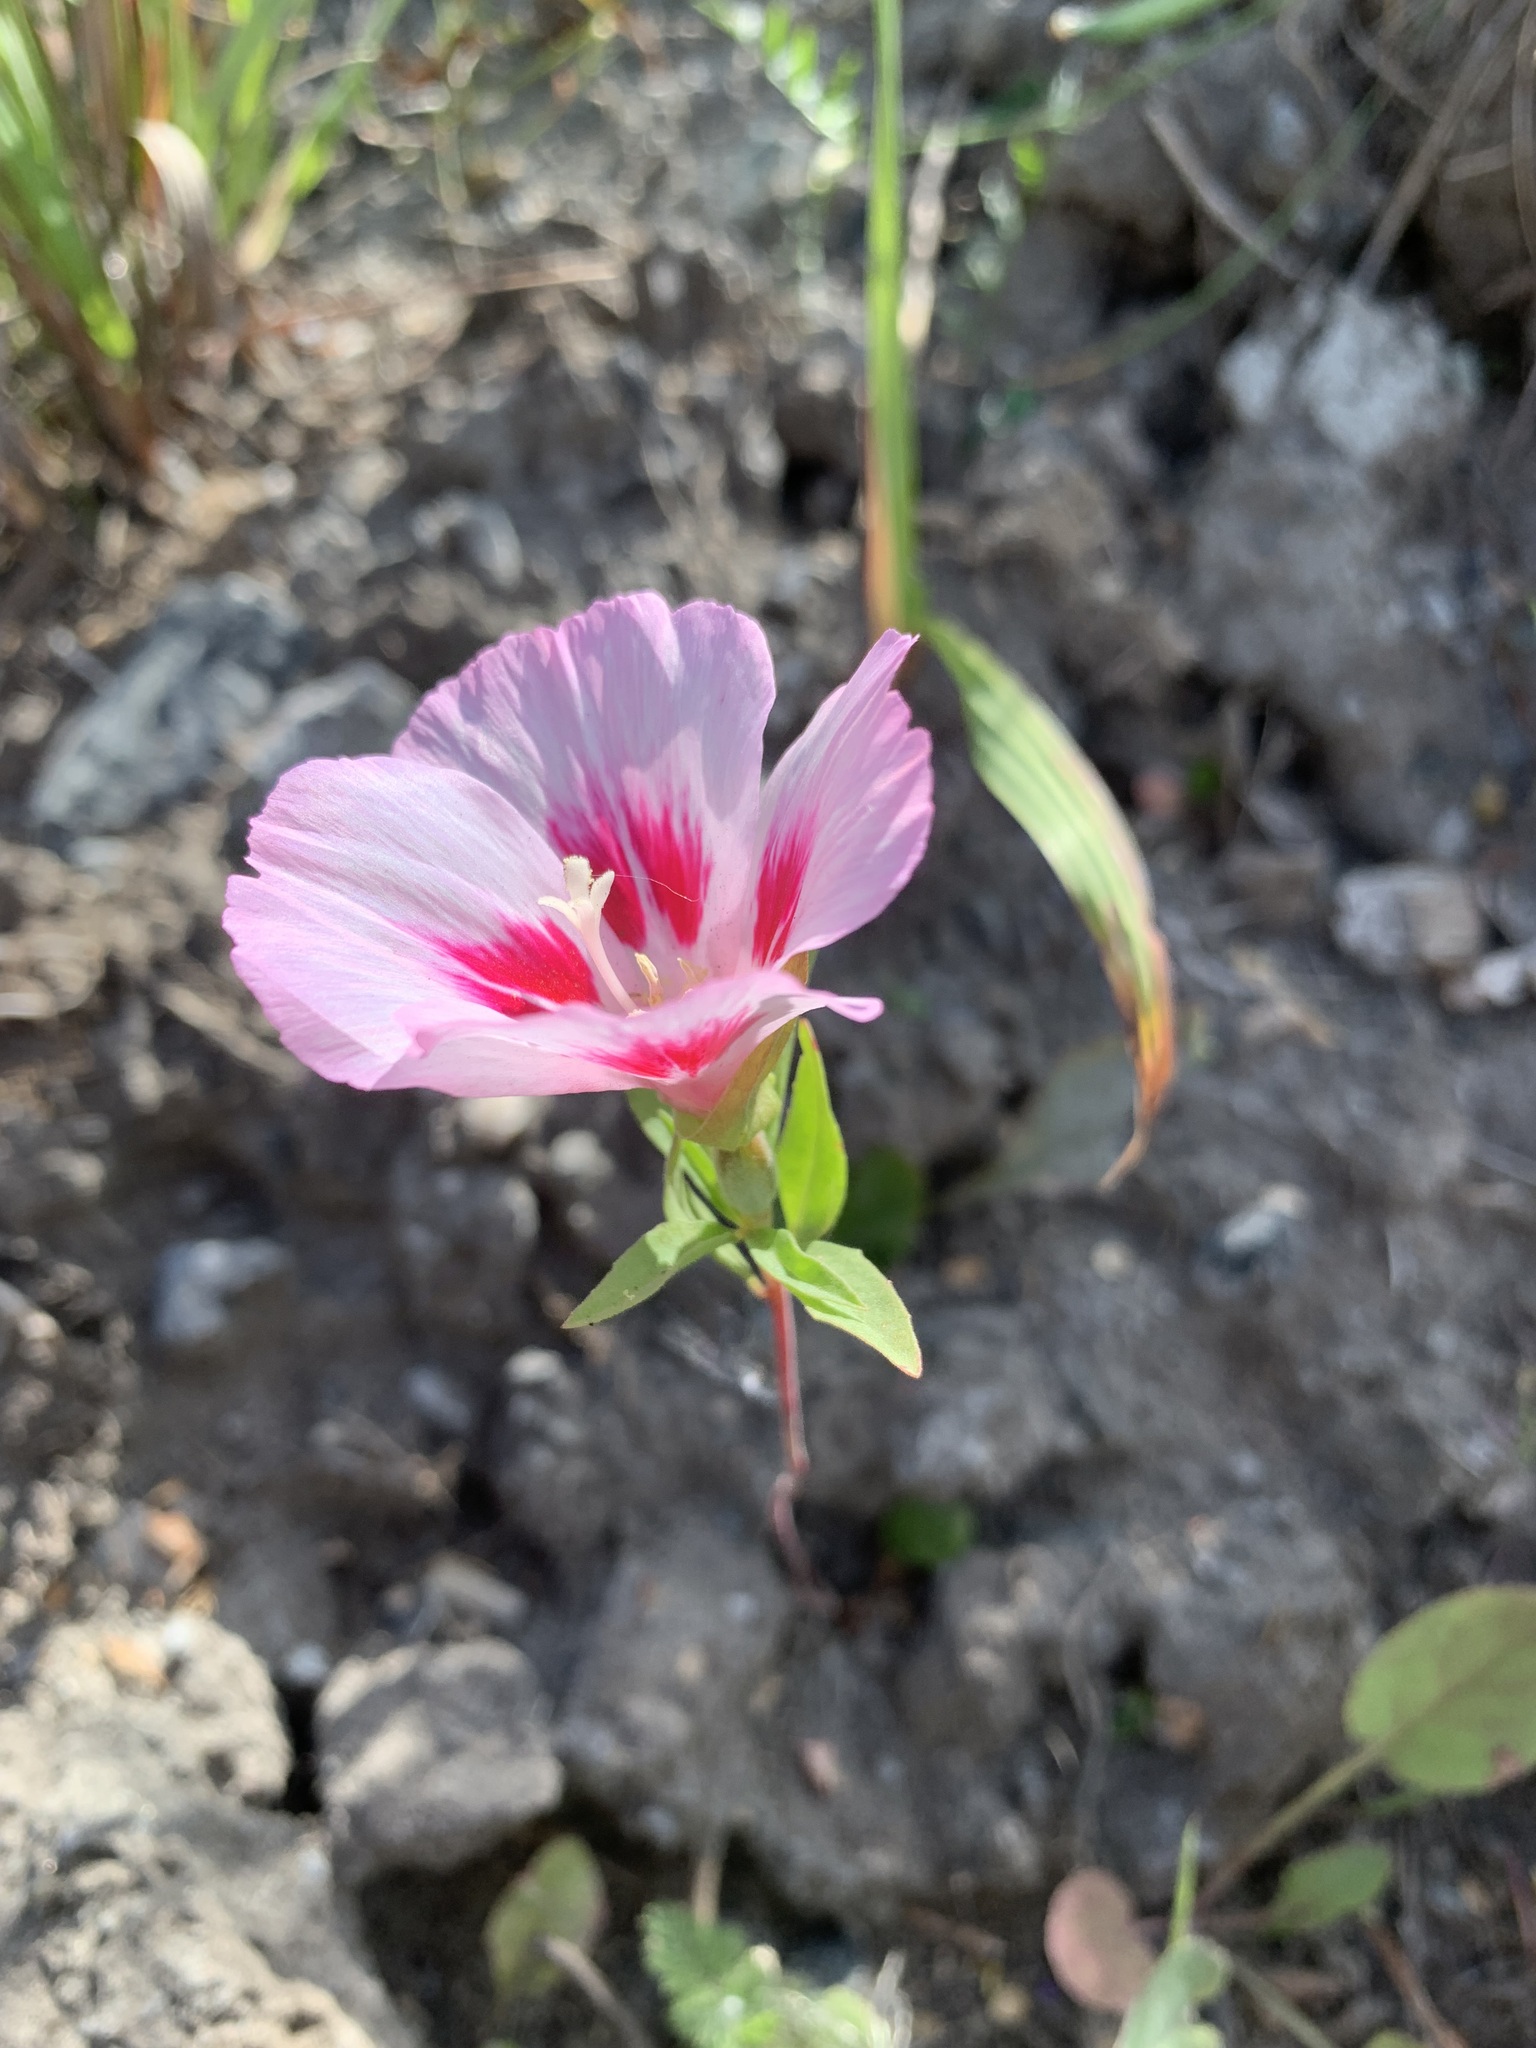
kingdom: Plantae
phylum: Tracheophyta
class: Magnoliopsida
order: Myrtales
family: Onagraceae
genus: Clarkia
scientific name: Clarkia amoena
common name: Godetia
